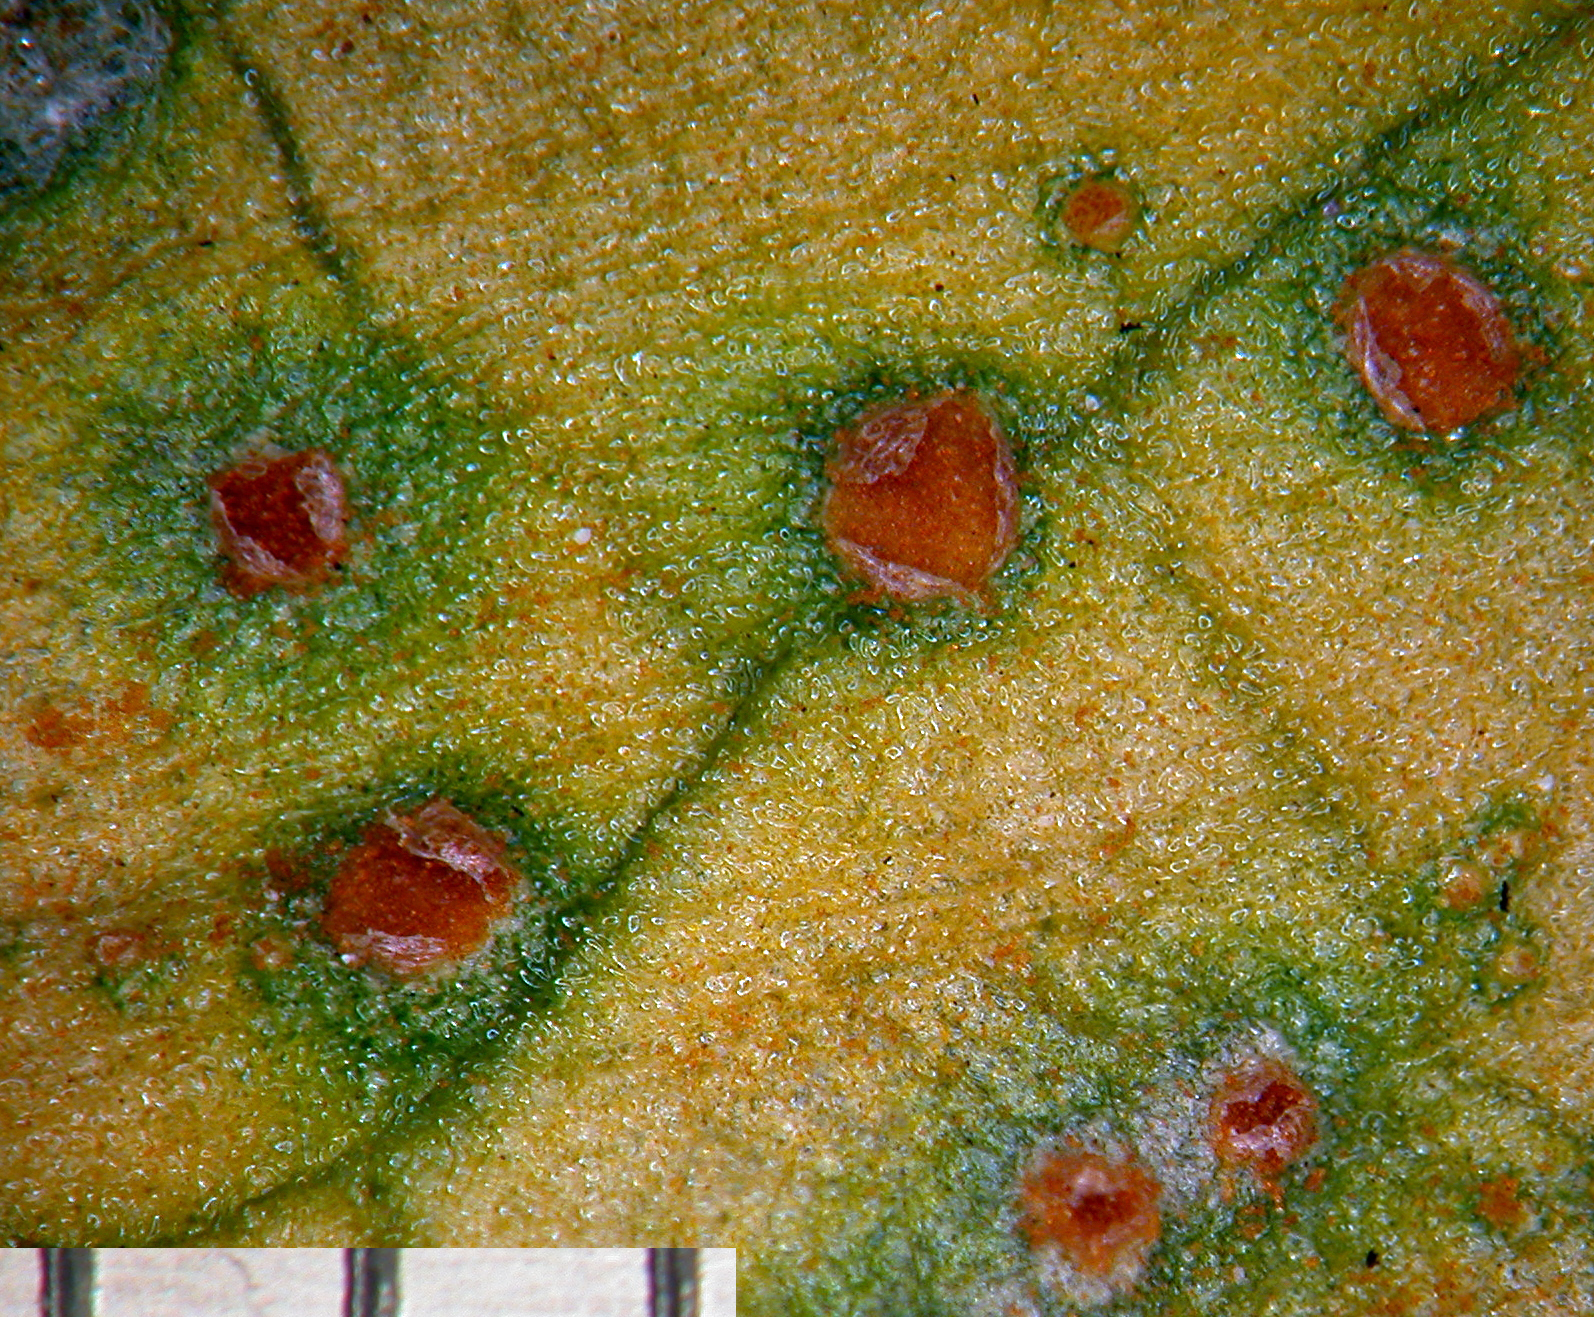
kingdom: Fungi
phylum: Basidiomycota
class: Pucciniomycetes
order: Pucciniales
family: Pucciniaceae
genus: Puccinia
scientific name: Puccinia otagensis
